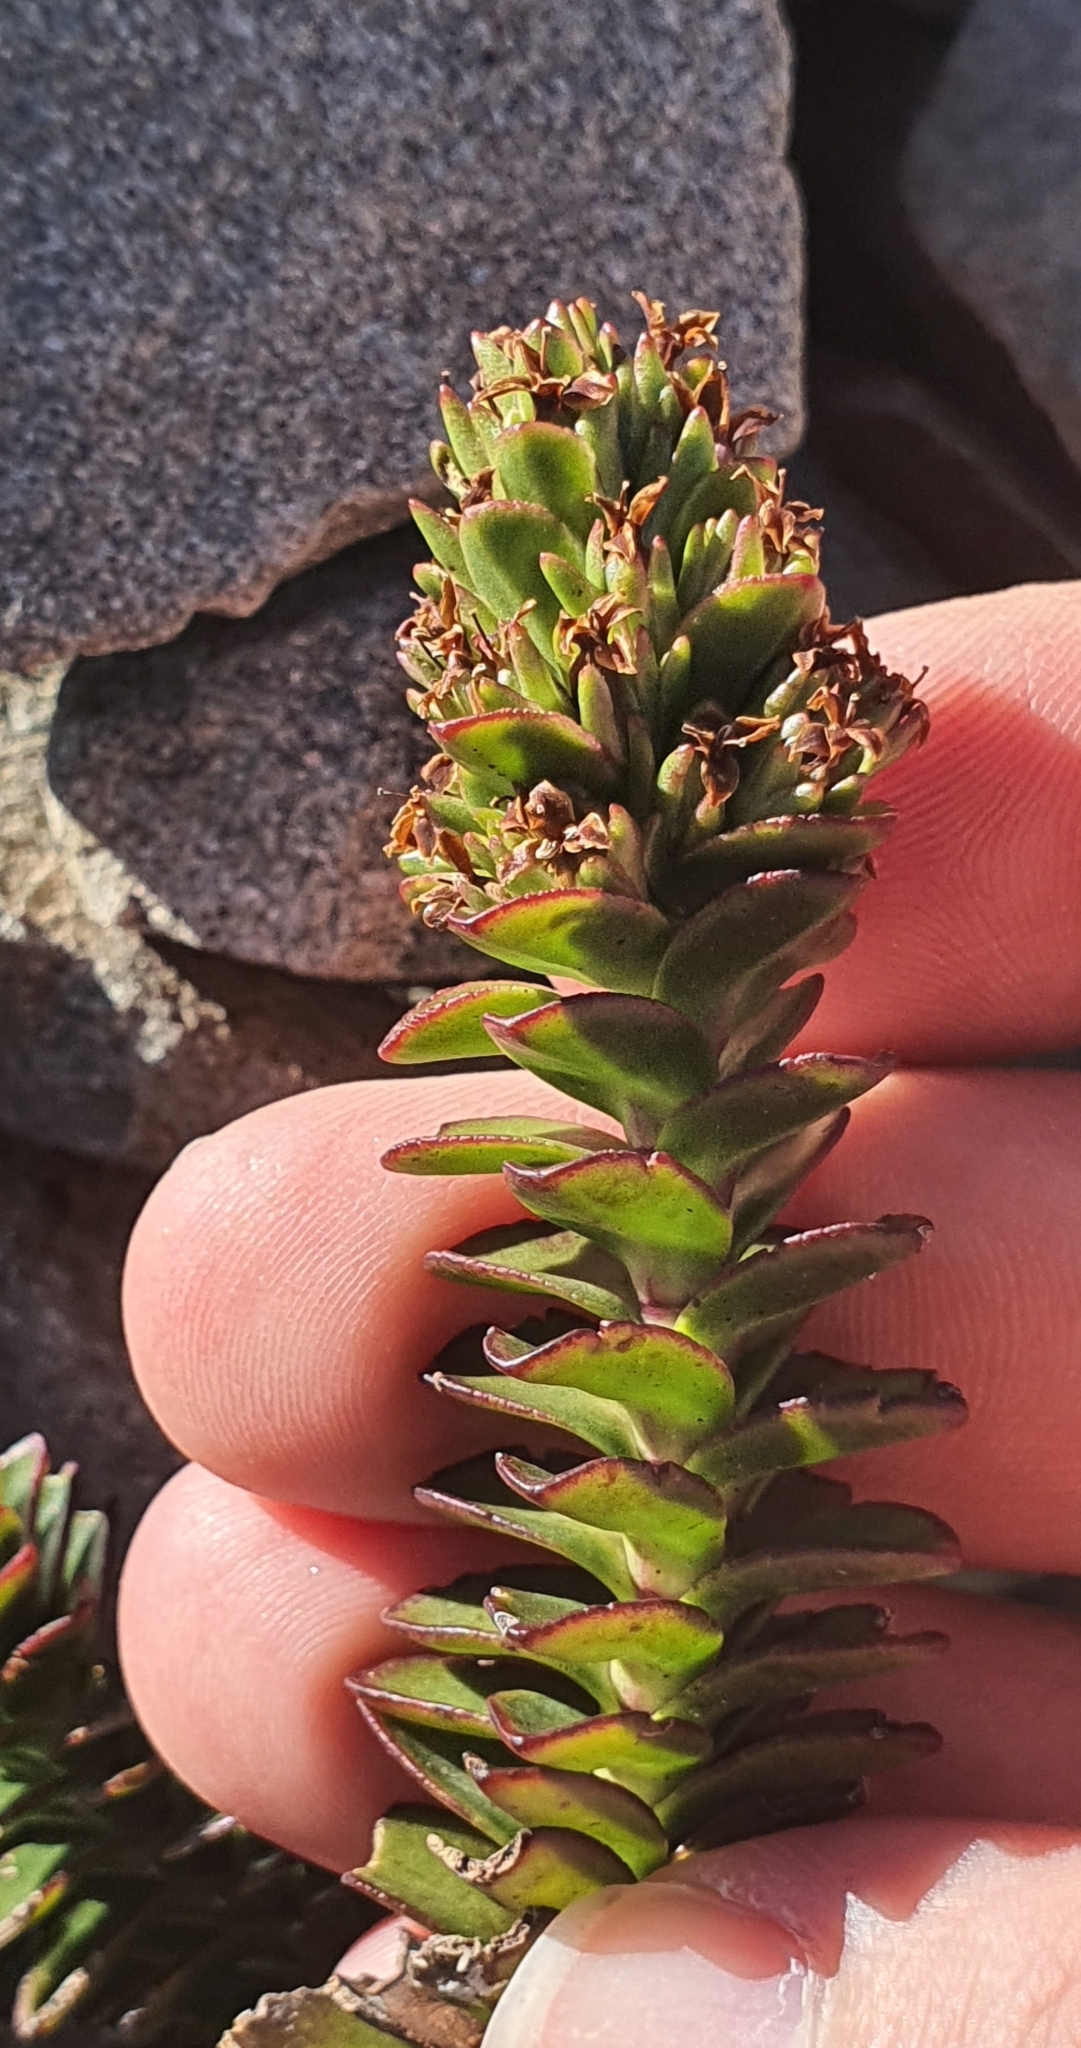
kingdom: Plantae
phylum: Tracheophyta
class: Magnoliopsida
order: Lamiales
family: Plantaginaceae
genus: Veronica
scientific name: Veronica haastii
